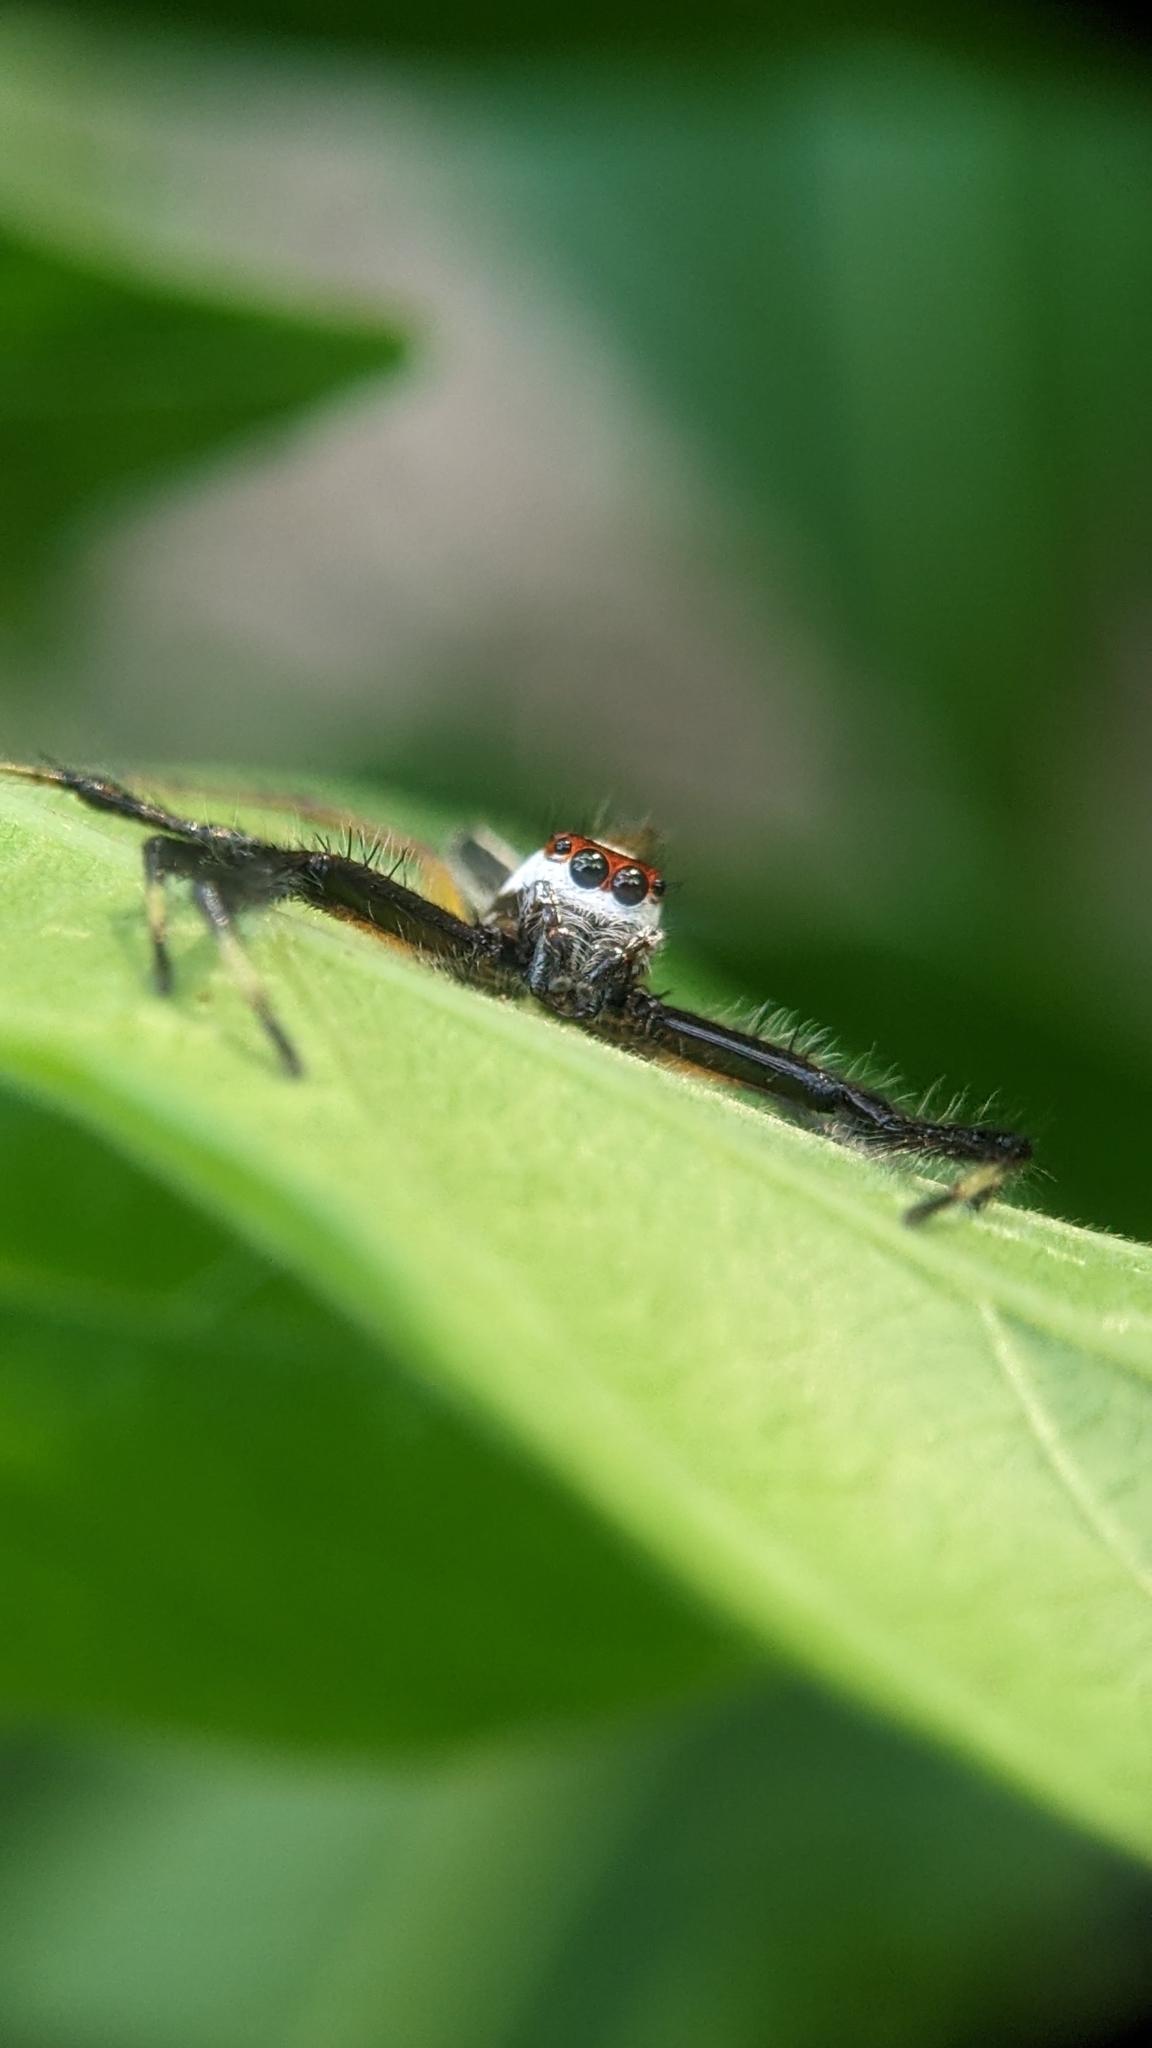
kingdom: Animalia
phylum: Arthropoda
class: Arachnida
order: Araneae
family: Salticidae
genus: Telamonia
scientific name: Telamonia dimidiata
